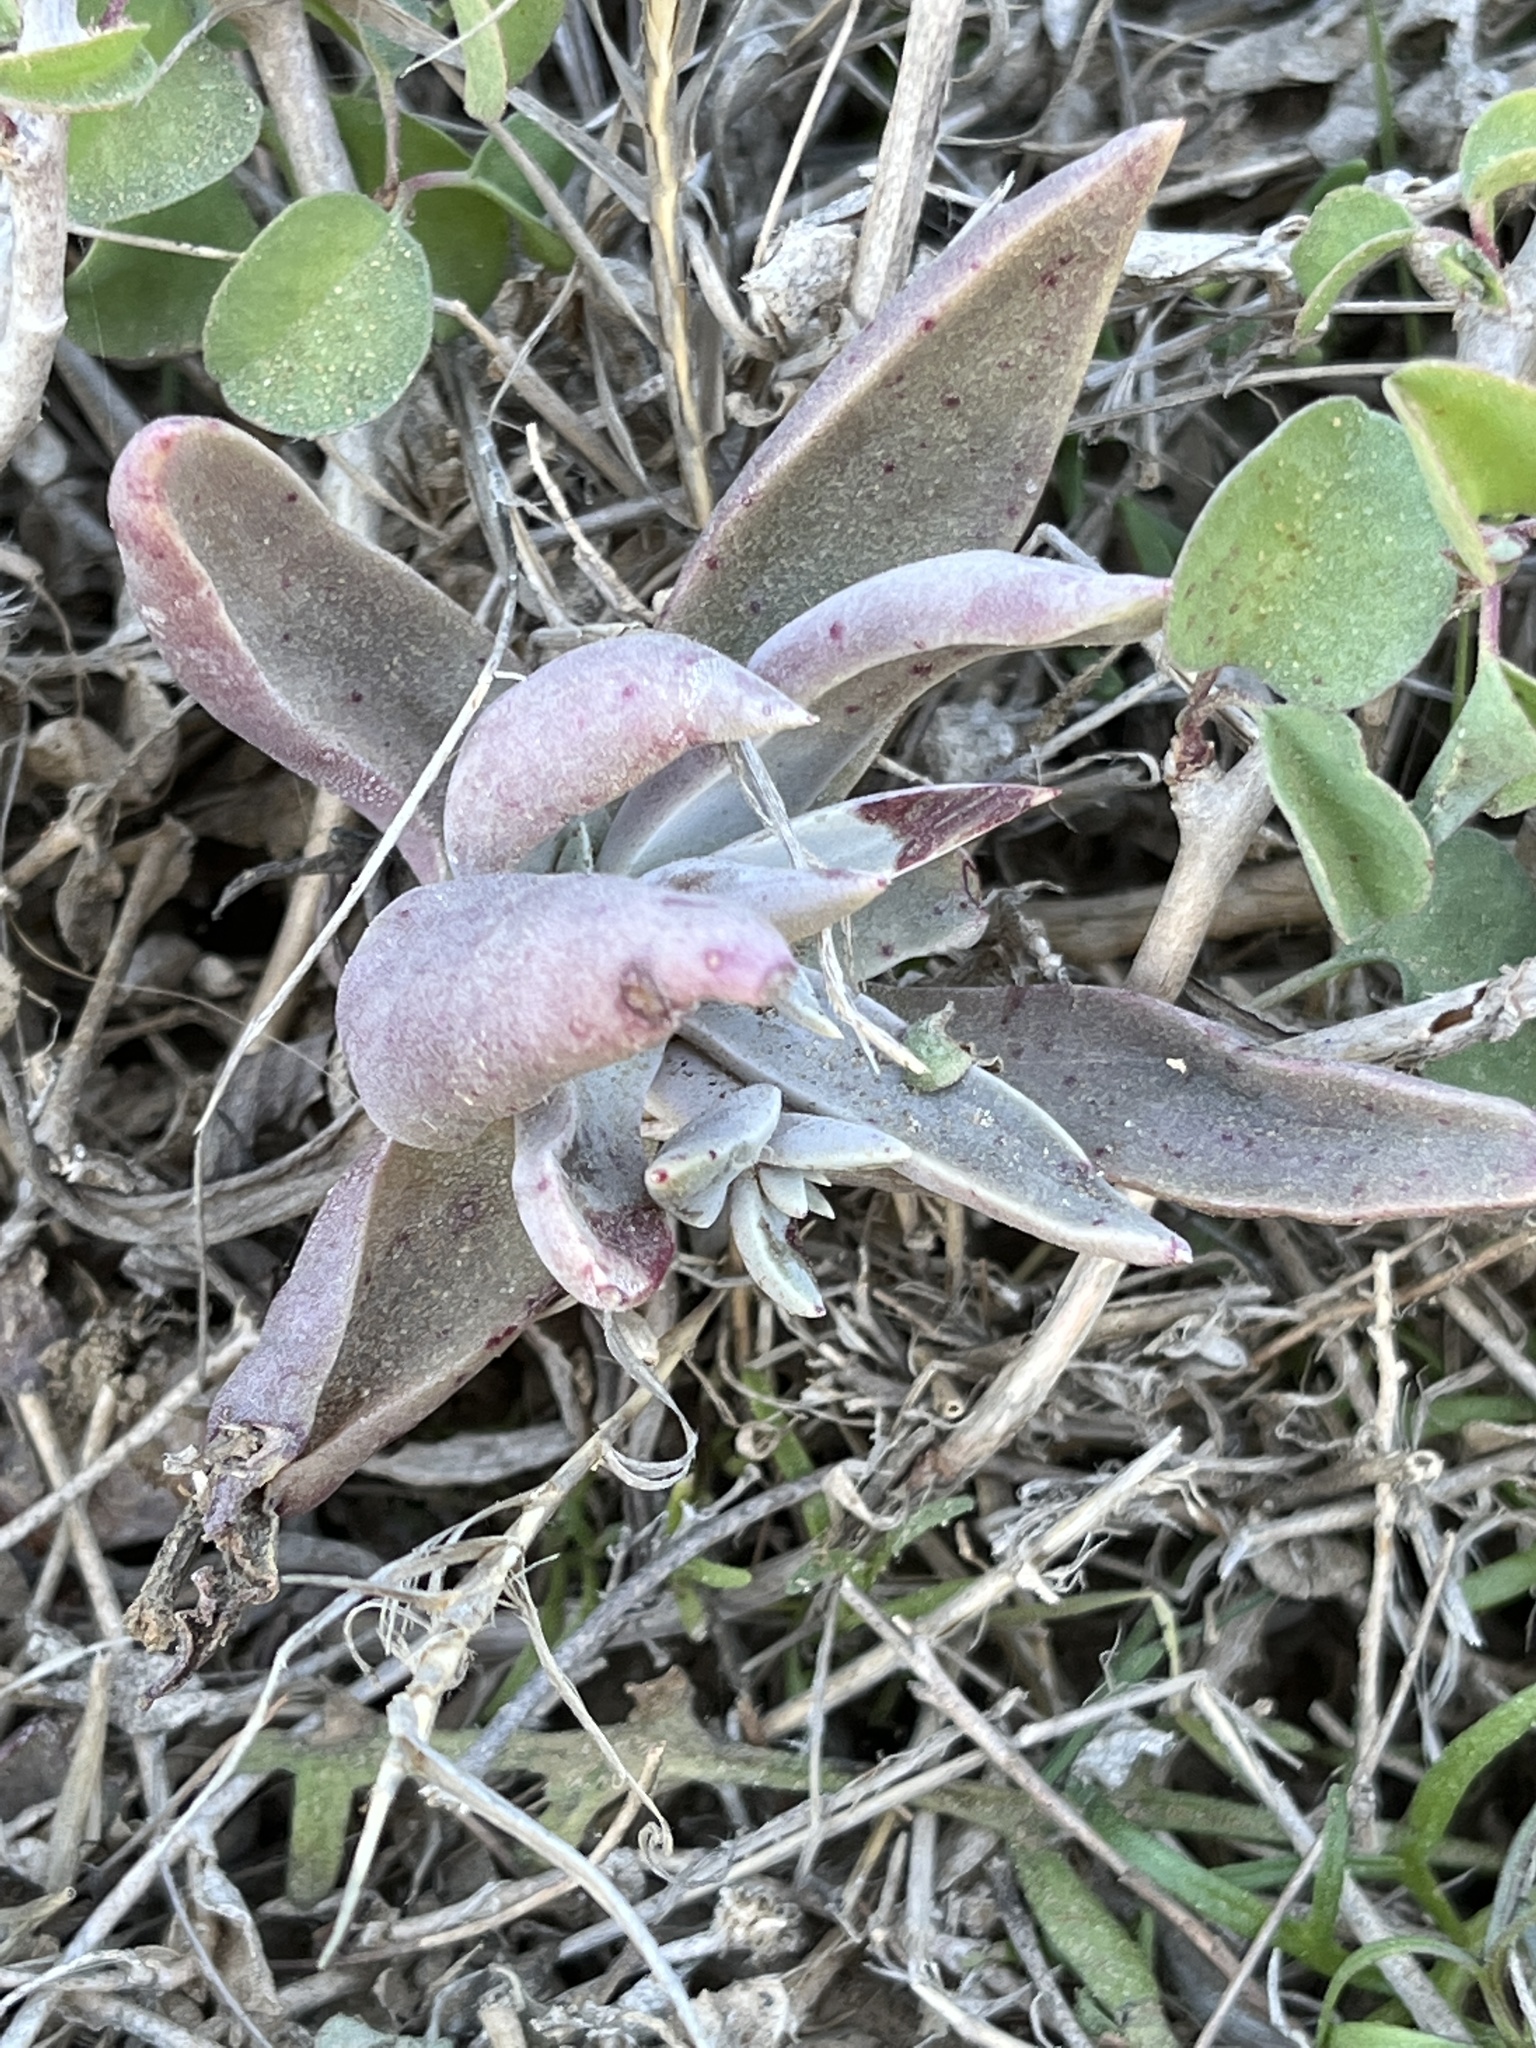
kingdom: Plantae
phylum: Tracheophyta
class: Magnoliopsida
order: Saxifragales
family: Crassulaceae
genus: Dudleya
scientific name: Dudleya lanceolata
